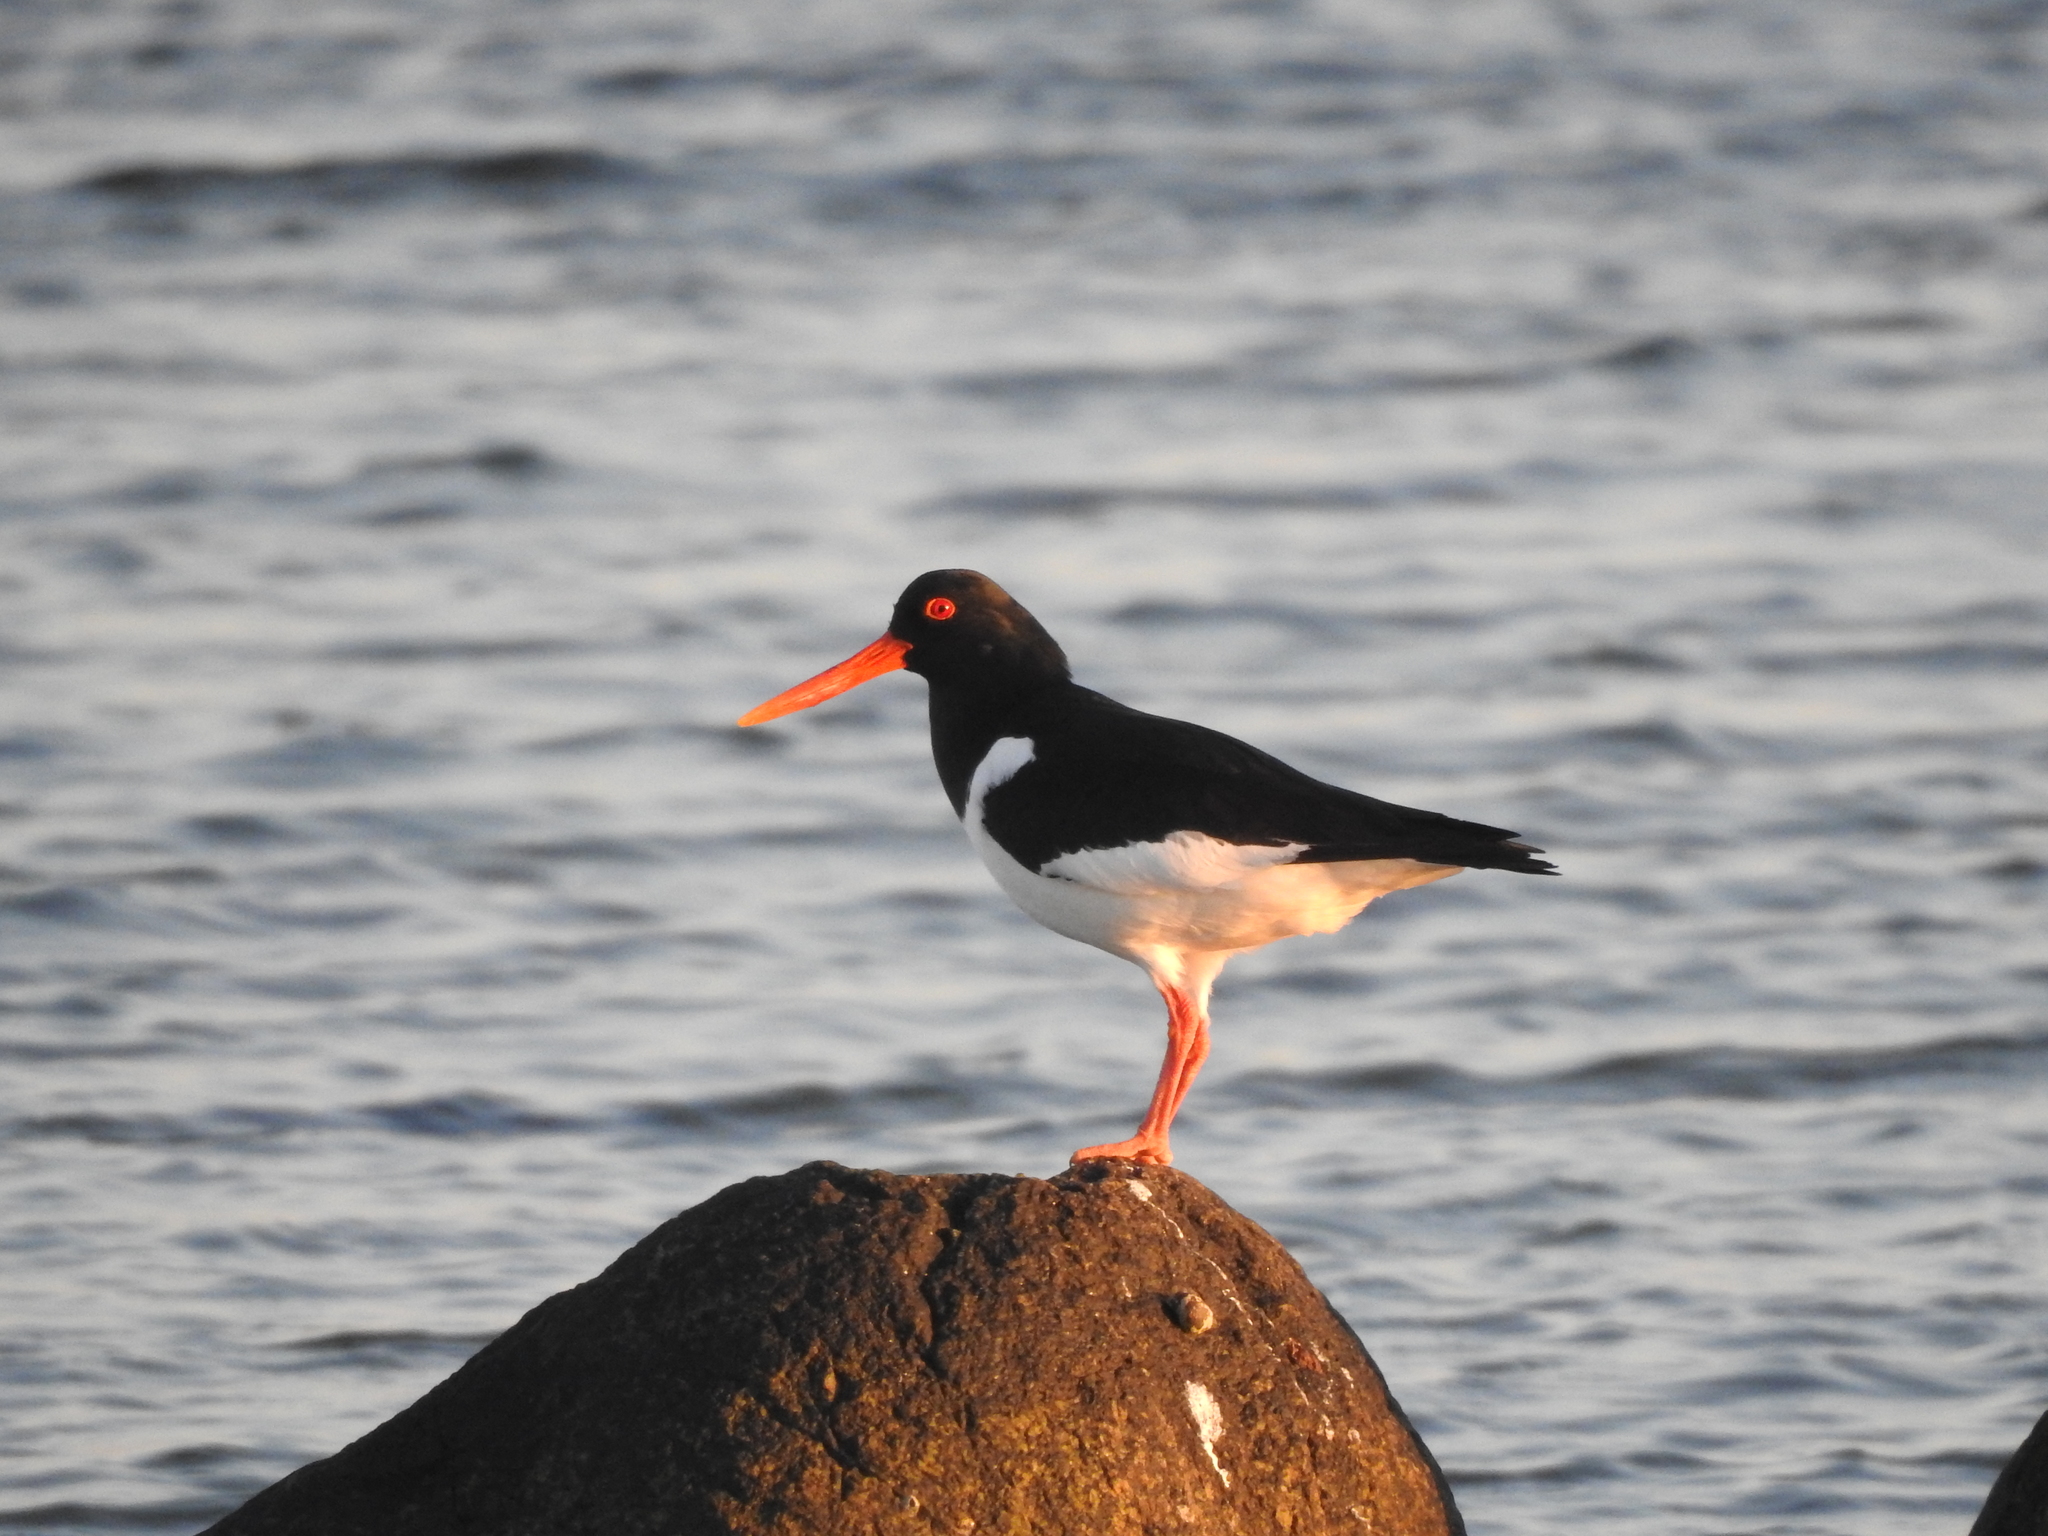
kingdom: Animalia
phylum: Chordata
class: Aves
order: Charadriiformes
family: Haematopodidae
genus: Haematopus
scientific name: Haematopus ostralegus
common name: Eurasian oystercatcher
